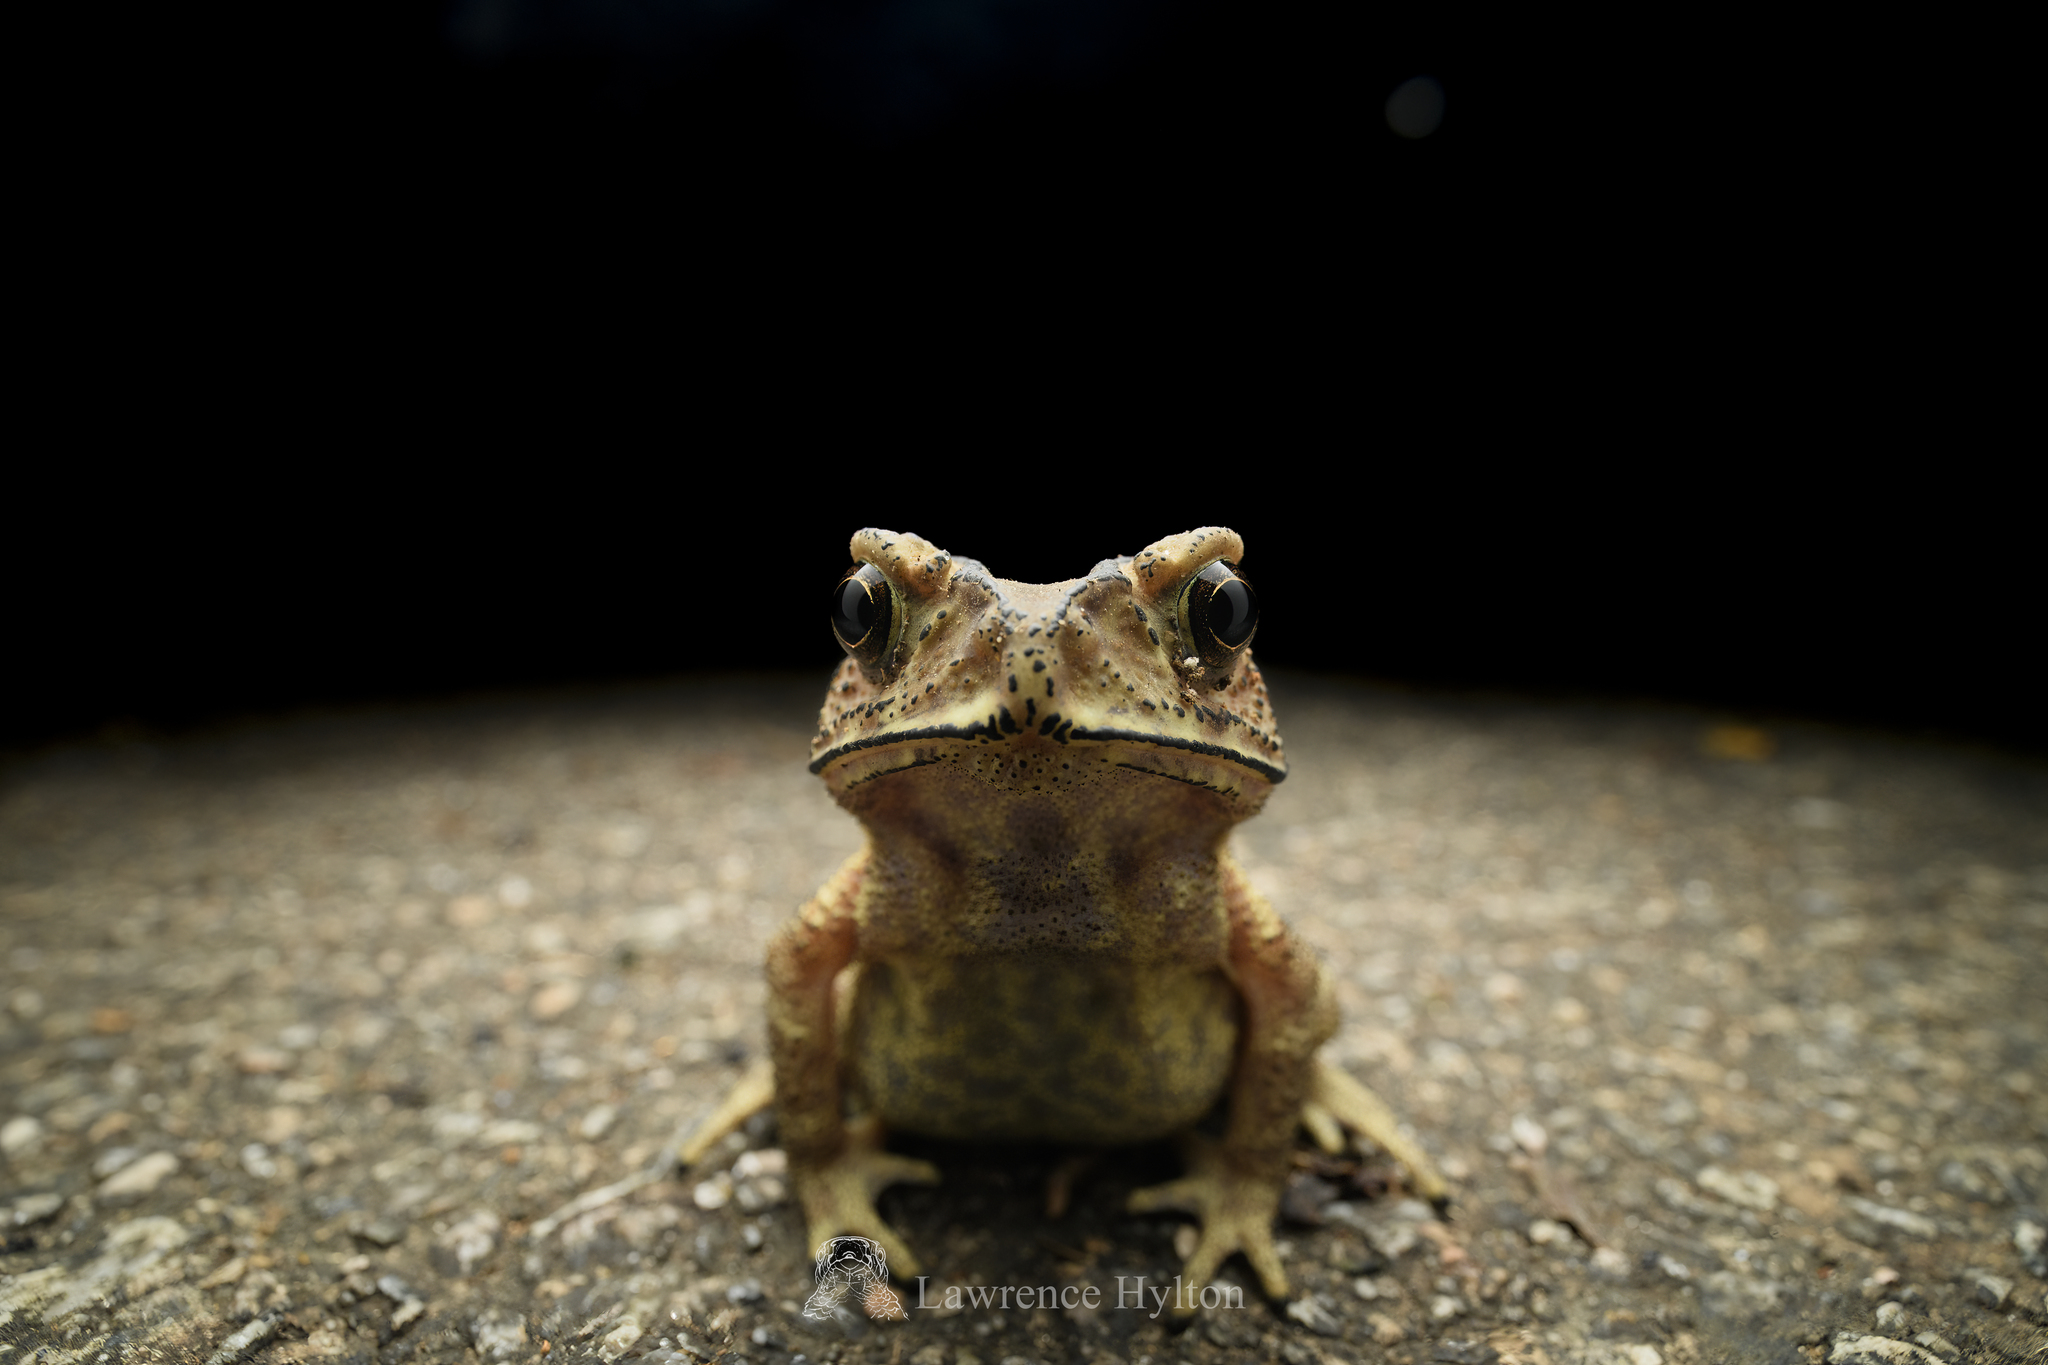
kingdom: Animalia
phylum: Chordata
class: Amphibia
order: Anura
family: Bufonidae
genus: Duttaphrynus
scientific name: Duttaphrynus melanostictus
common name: Common sunda toad
